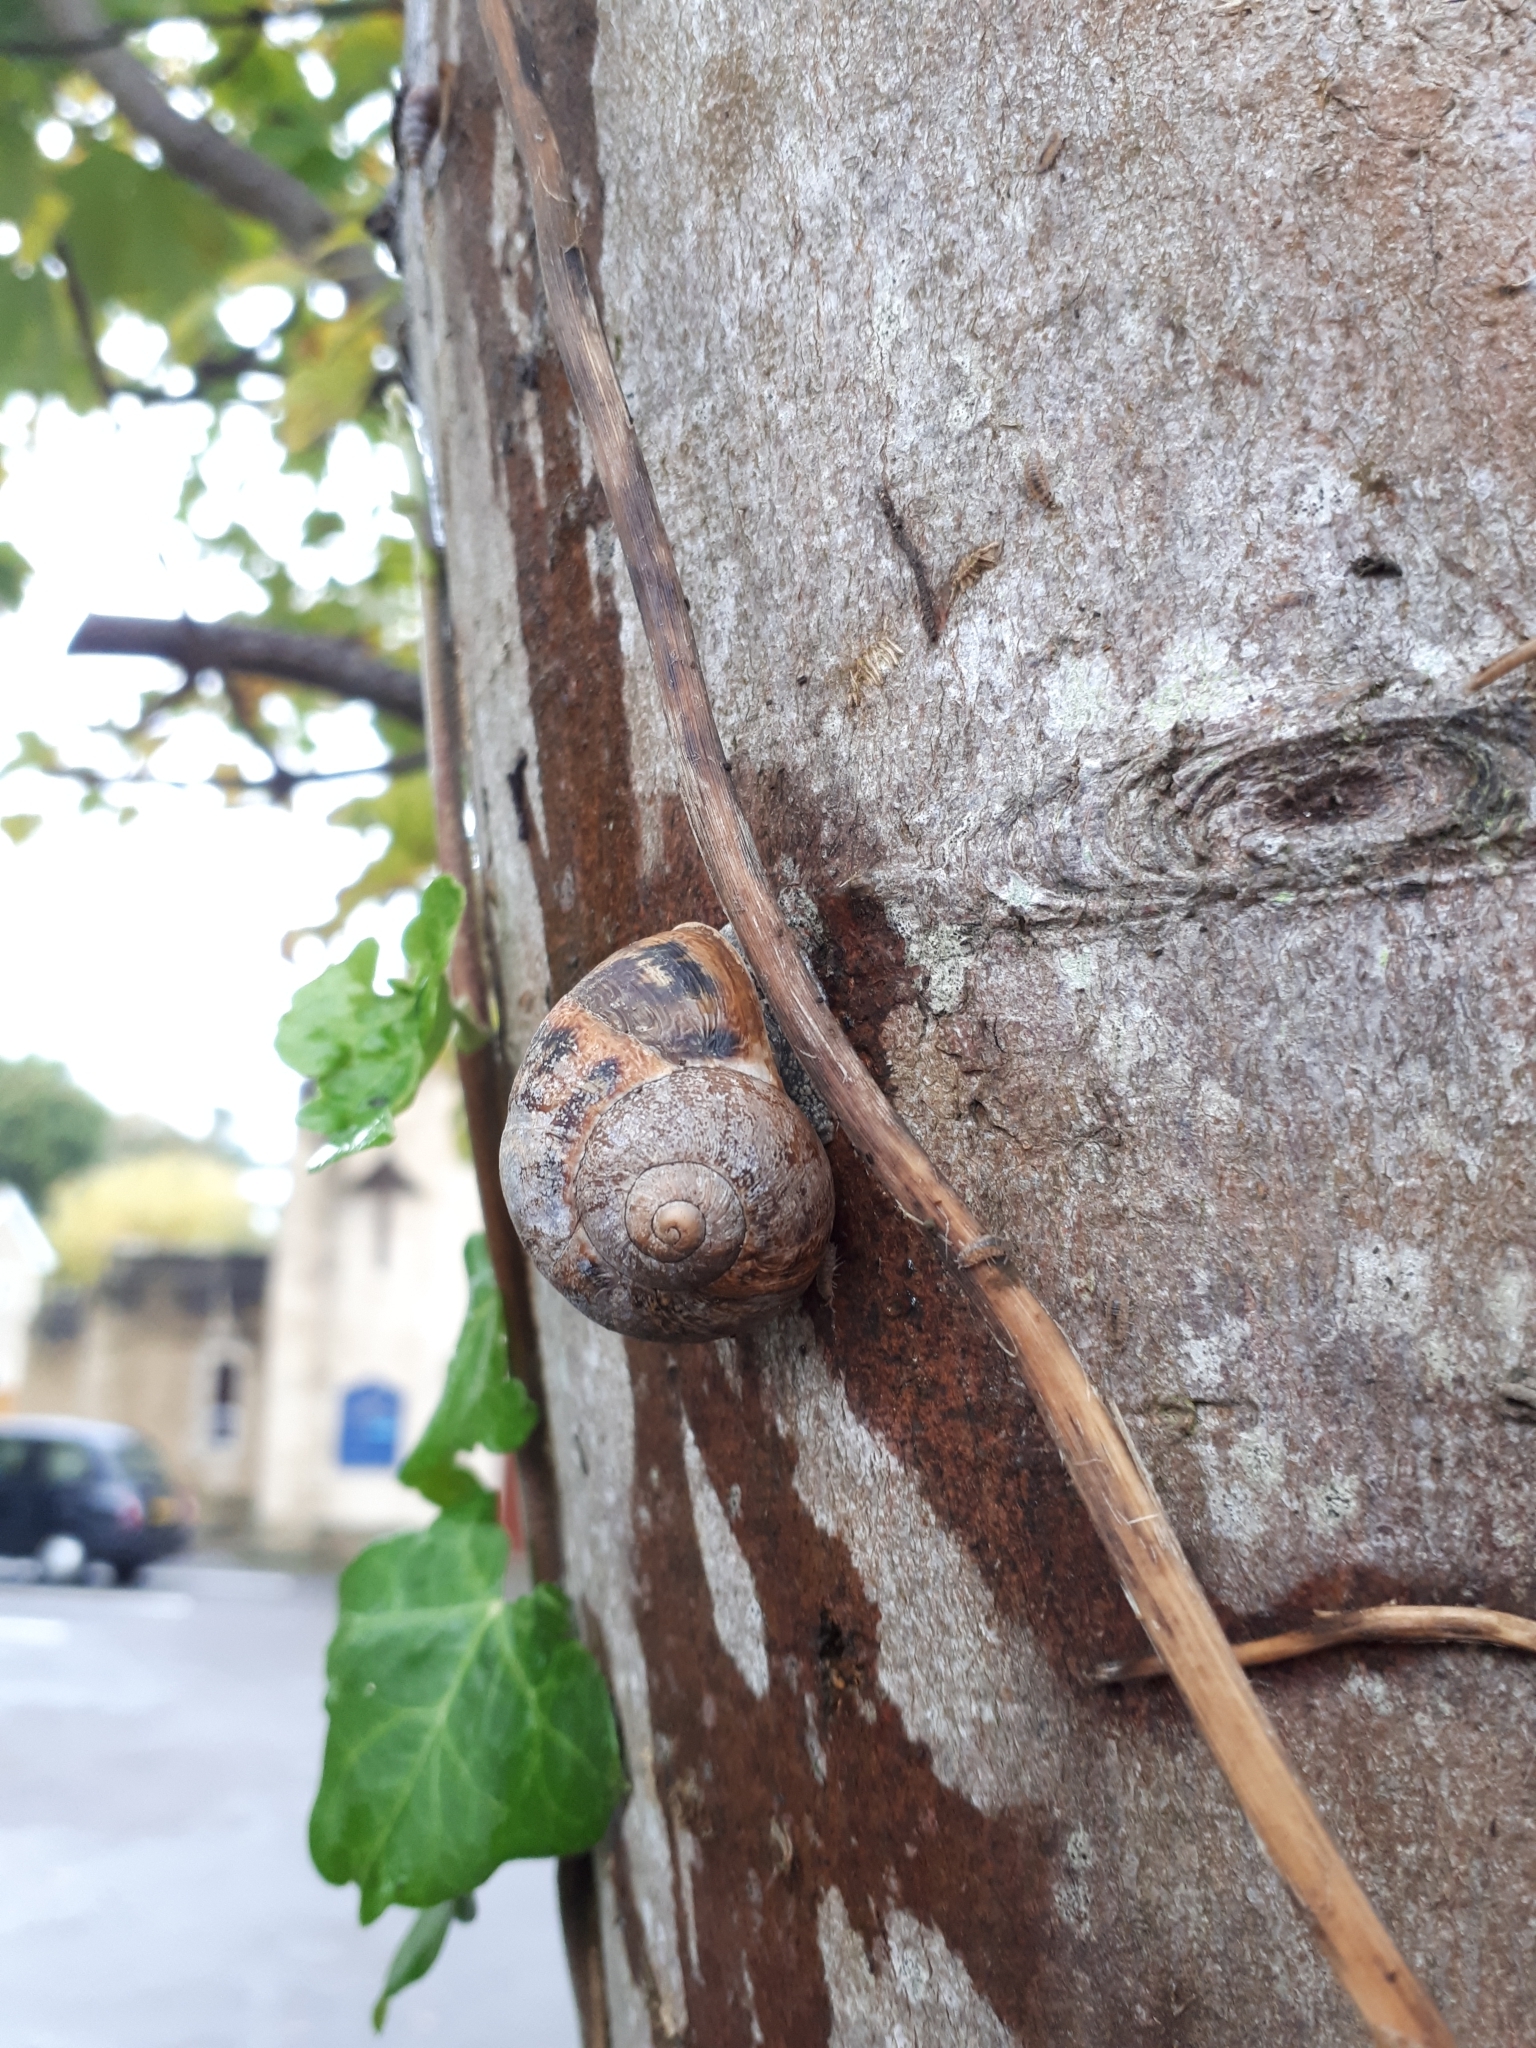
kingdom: Animalia
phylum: Mollusca
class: Gastropoda
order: Stylommatophora
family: Helicidae
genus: Cornu
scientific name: Cornu aspersum
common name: Brown garden snail
